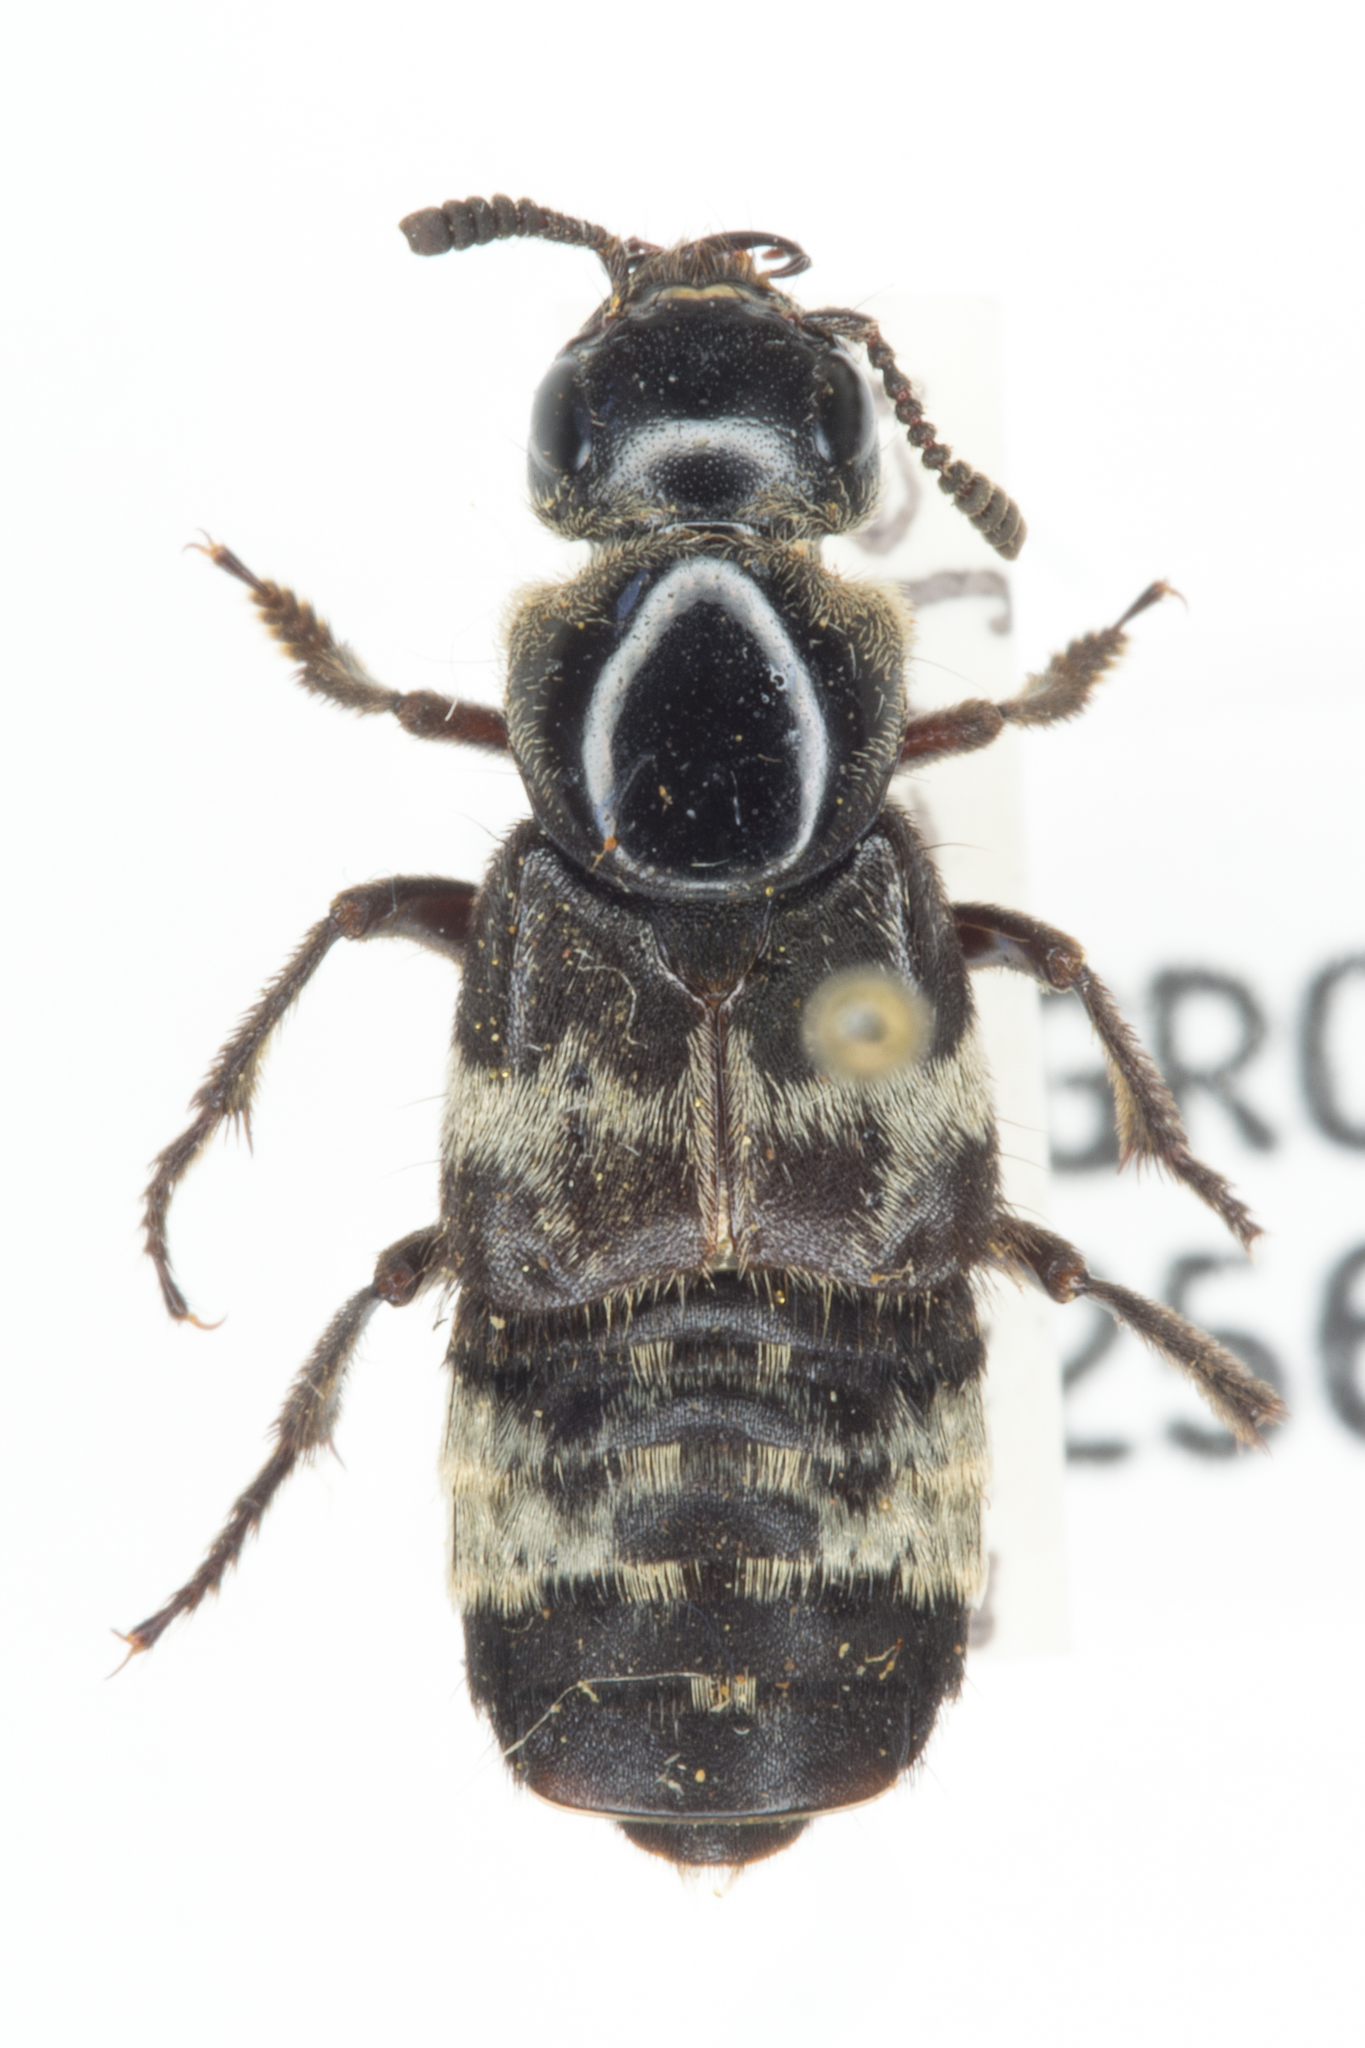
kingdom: Animalia
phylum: Arthropoda
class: Insecta
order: Coleoptera
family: Staphylinidae
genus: Creophilus
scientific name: Creophilus maxillosus
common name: Hairy rove beetle
